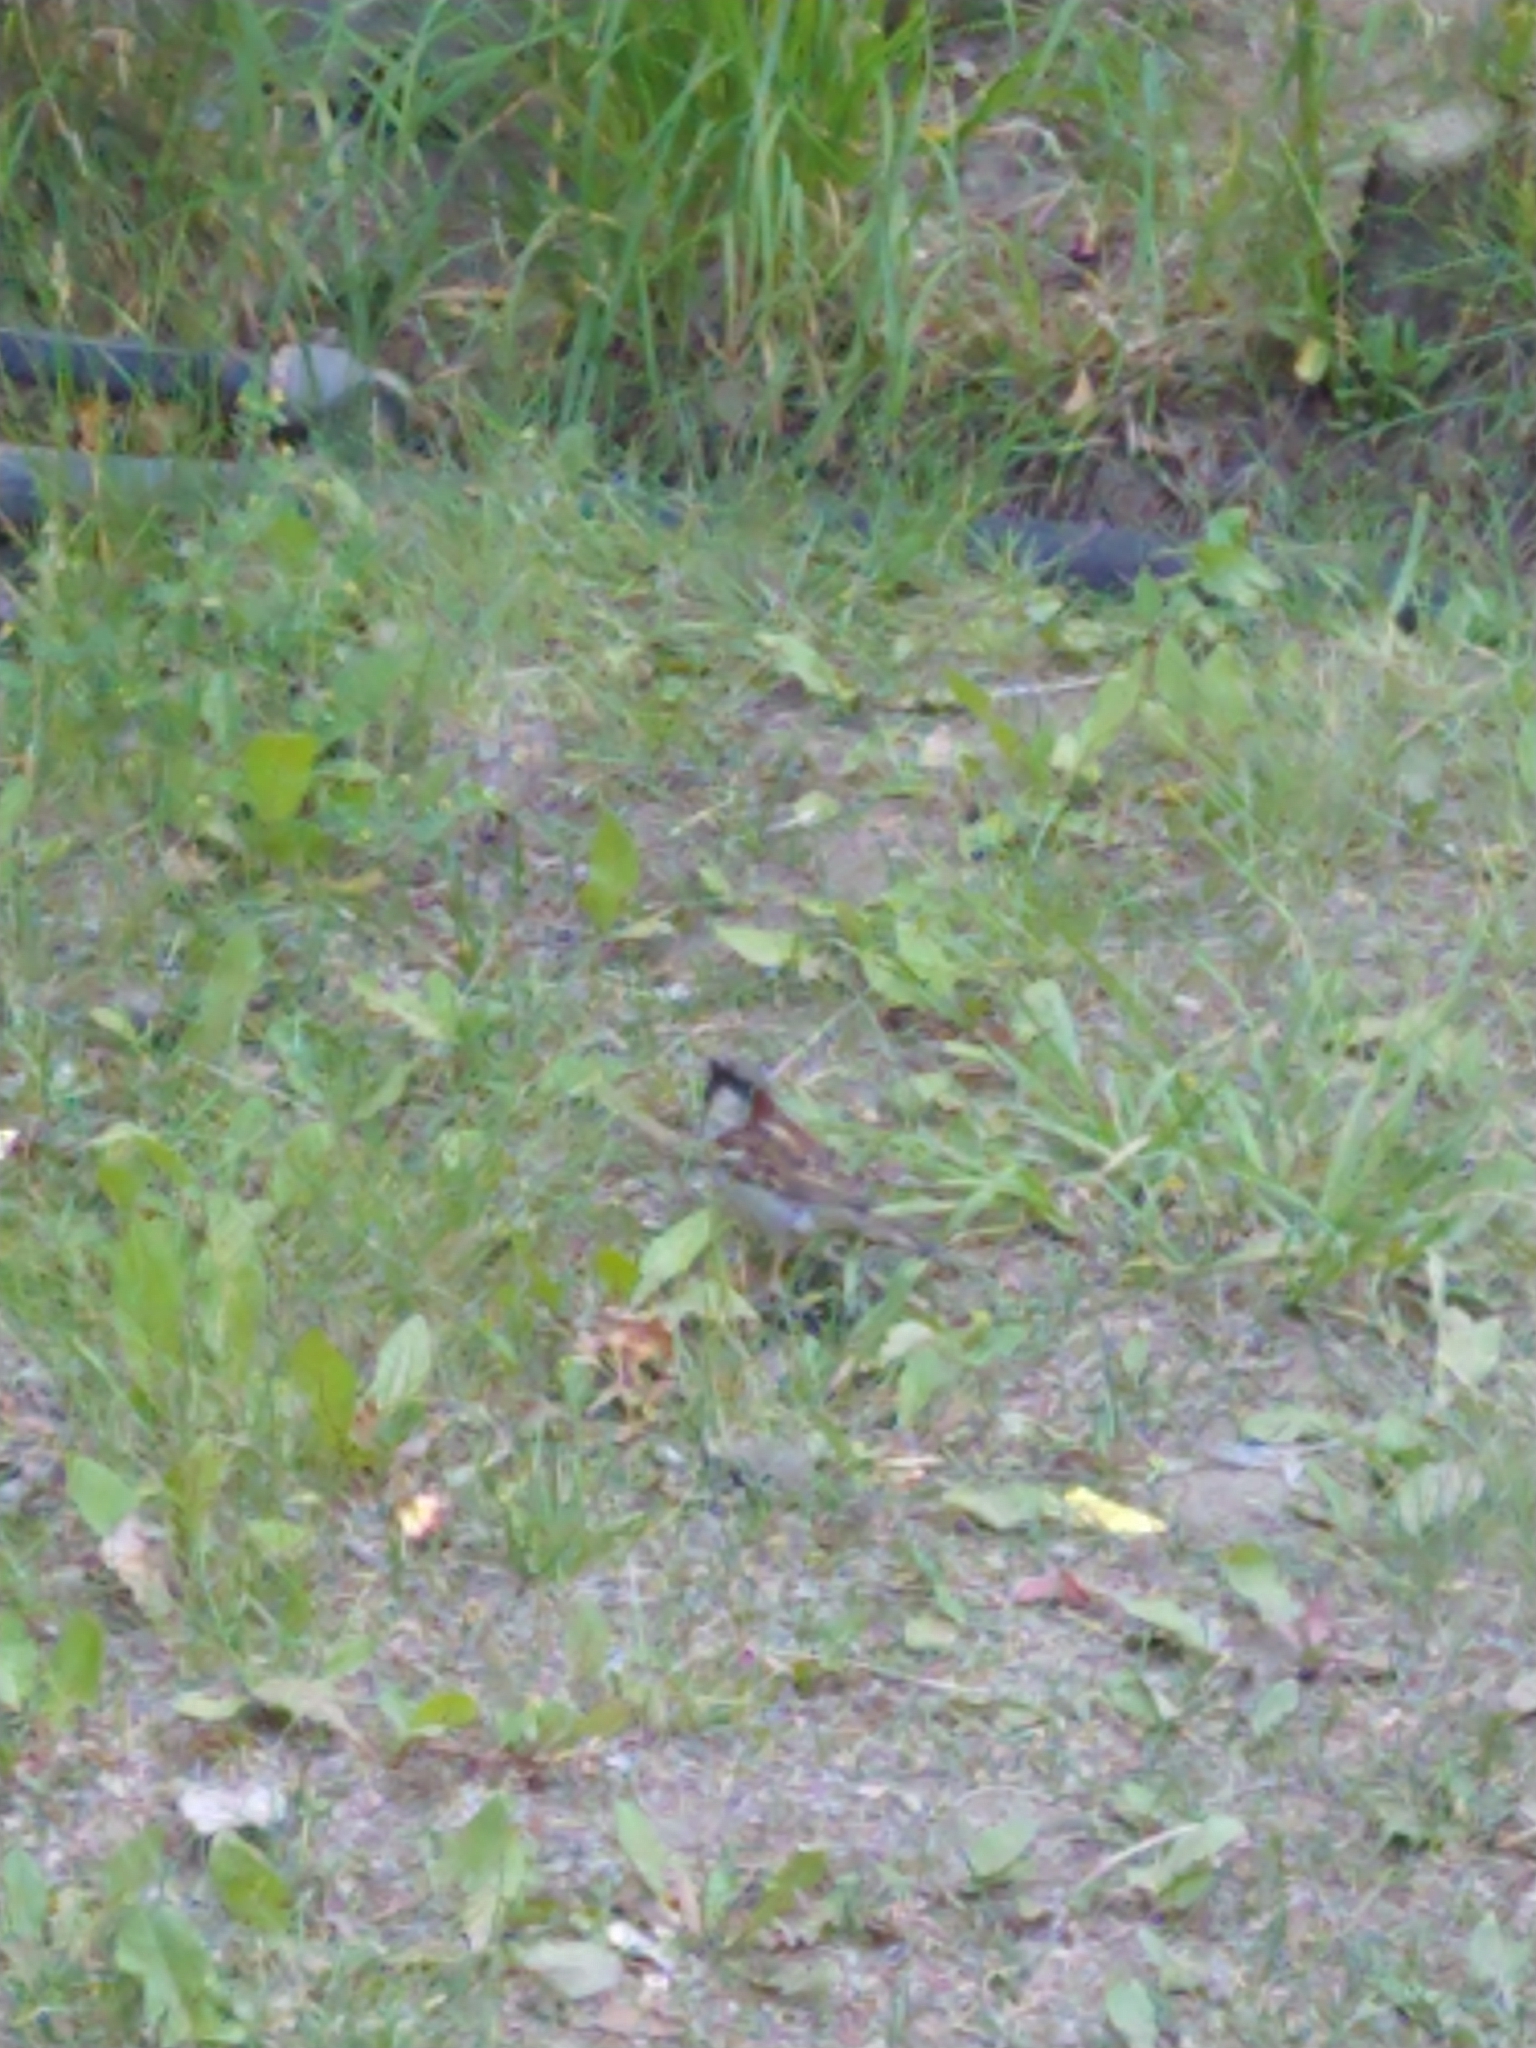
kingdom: Animalia
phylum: Chordata
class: Aves
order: Passeriformes
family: Passeridae
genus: Passer
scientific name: Passer domesticus
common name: House sparrow
